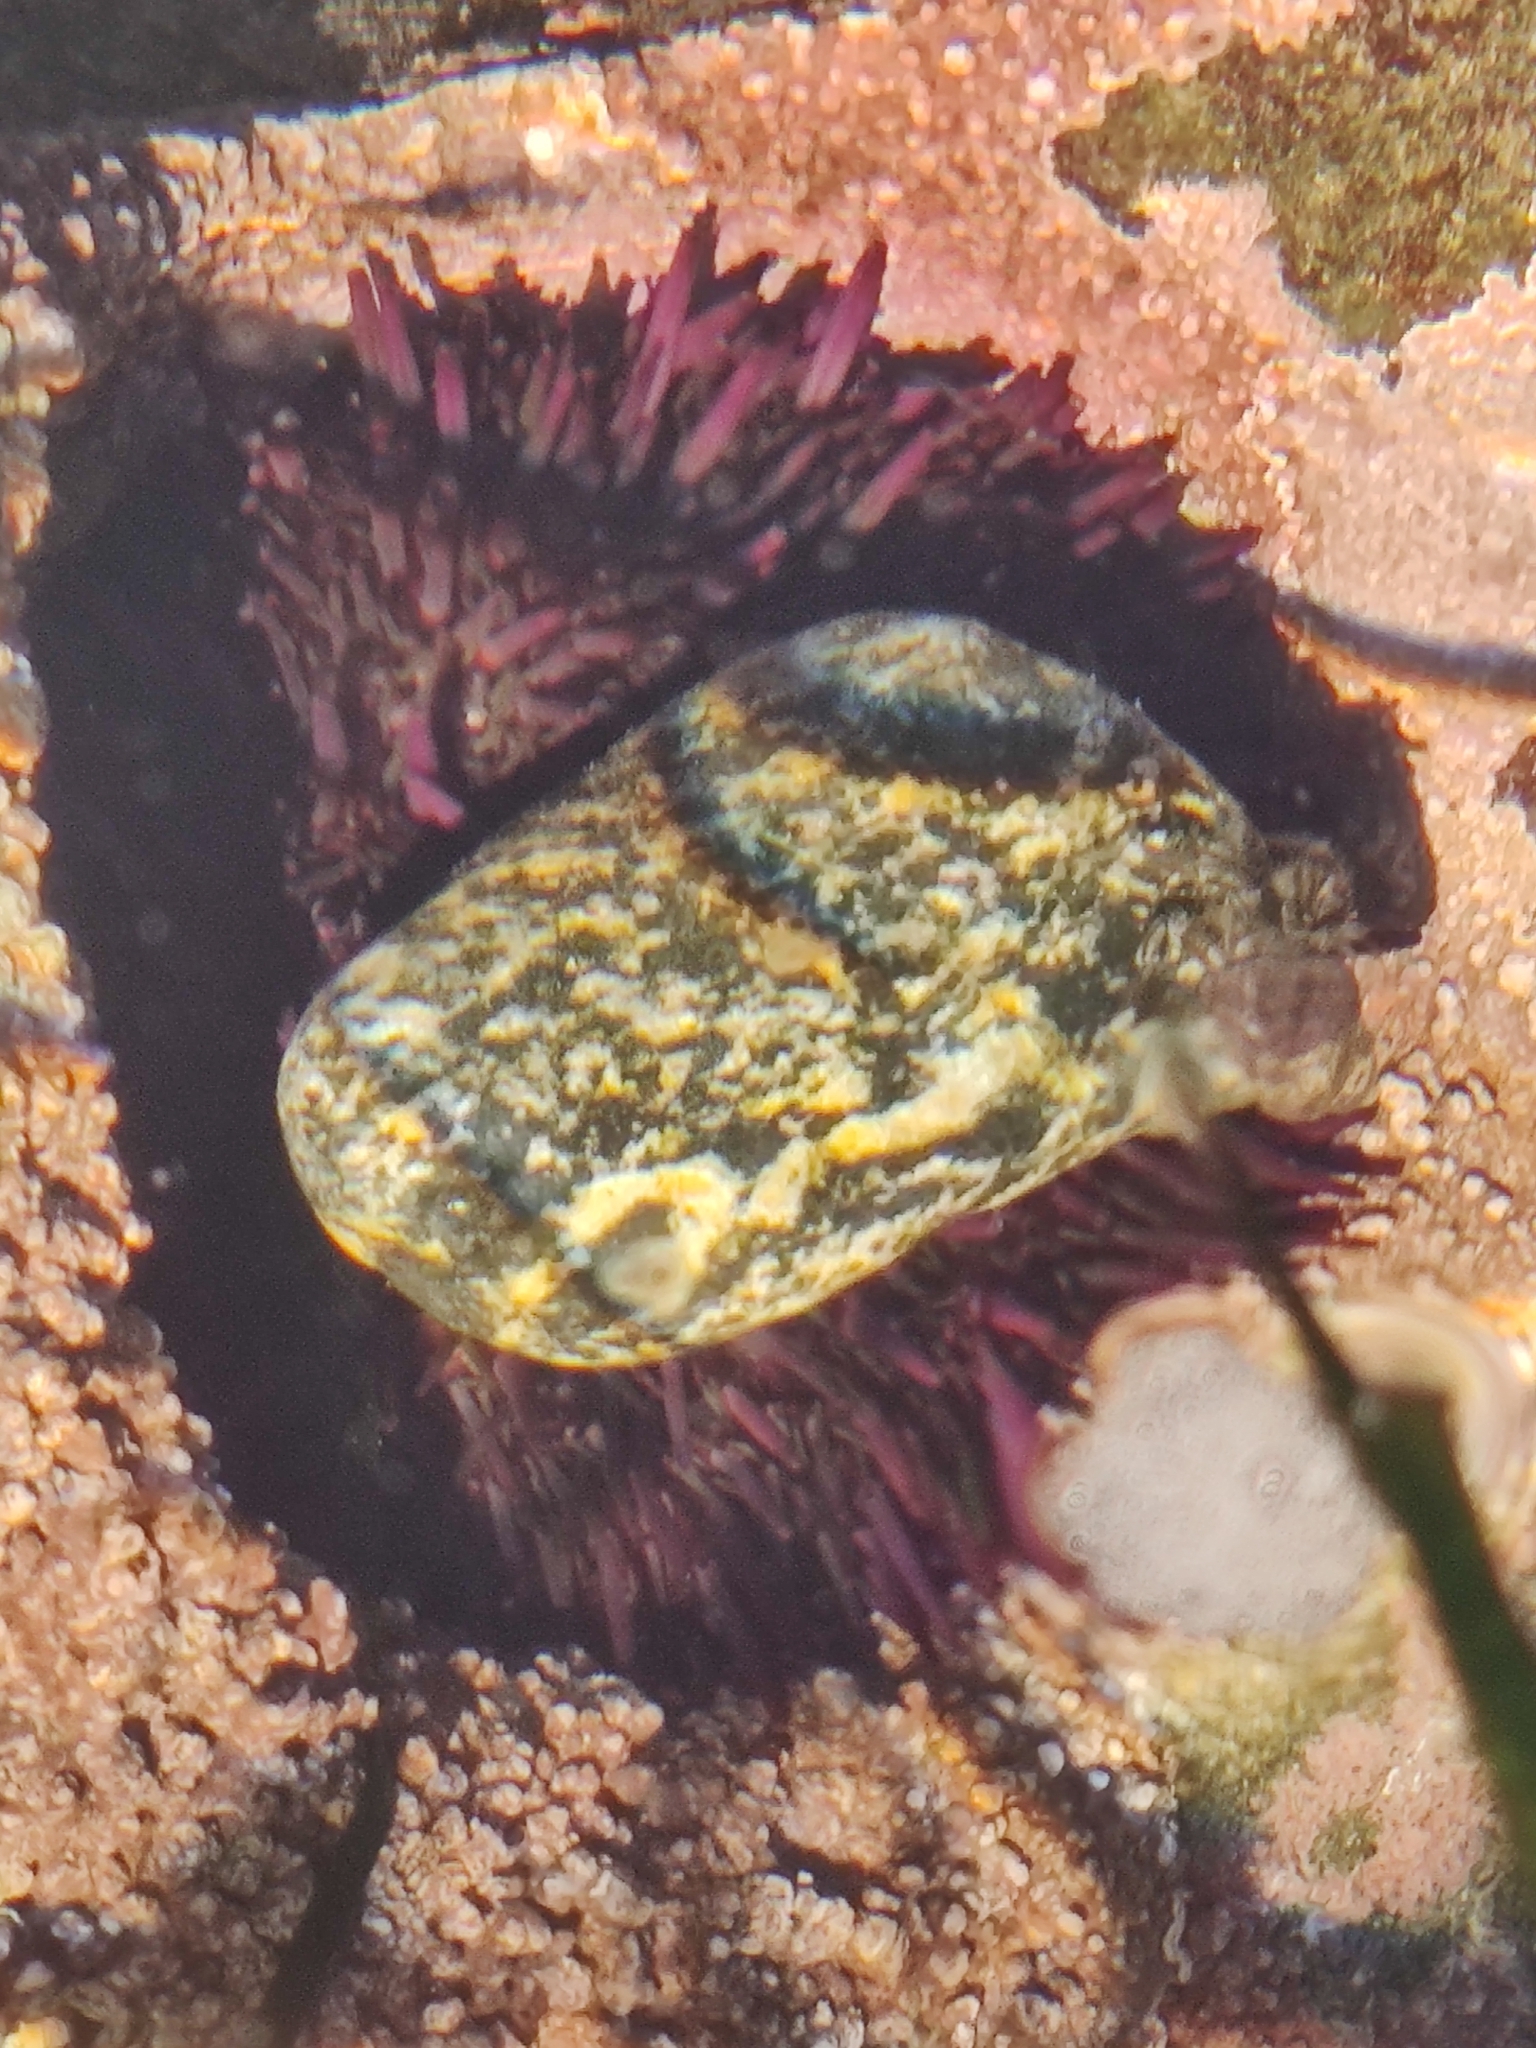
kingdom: Animalia
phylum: Echinodermata
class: Echinoidea
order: Camarodonta
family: Strongylocentrotidae
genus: Strongylocentrotus
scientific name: Strongylocentrotus purpuratus
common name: Purple sea urchin
